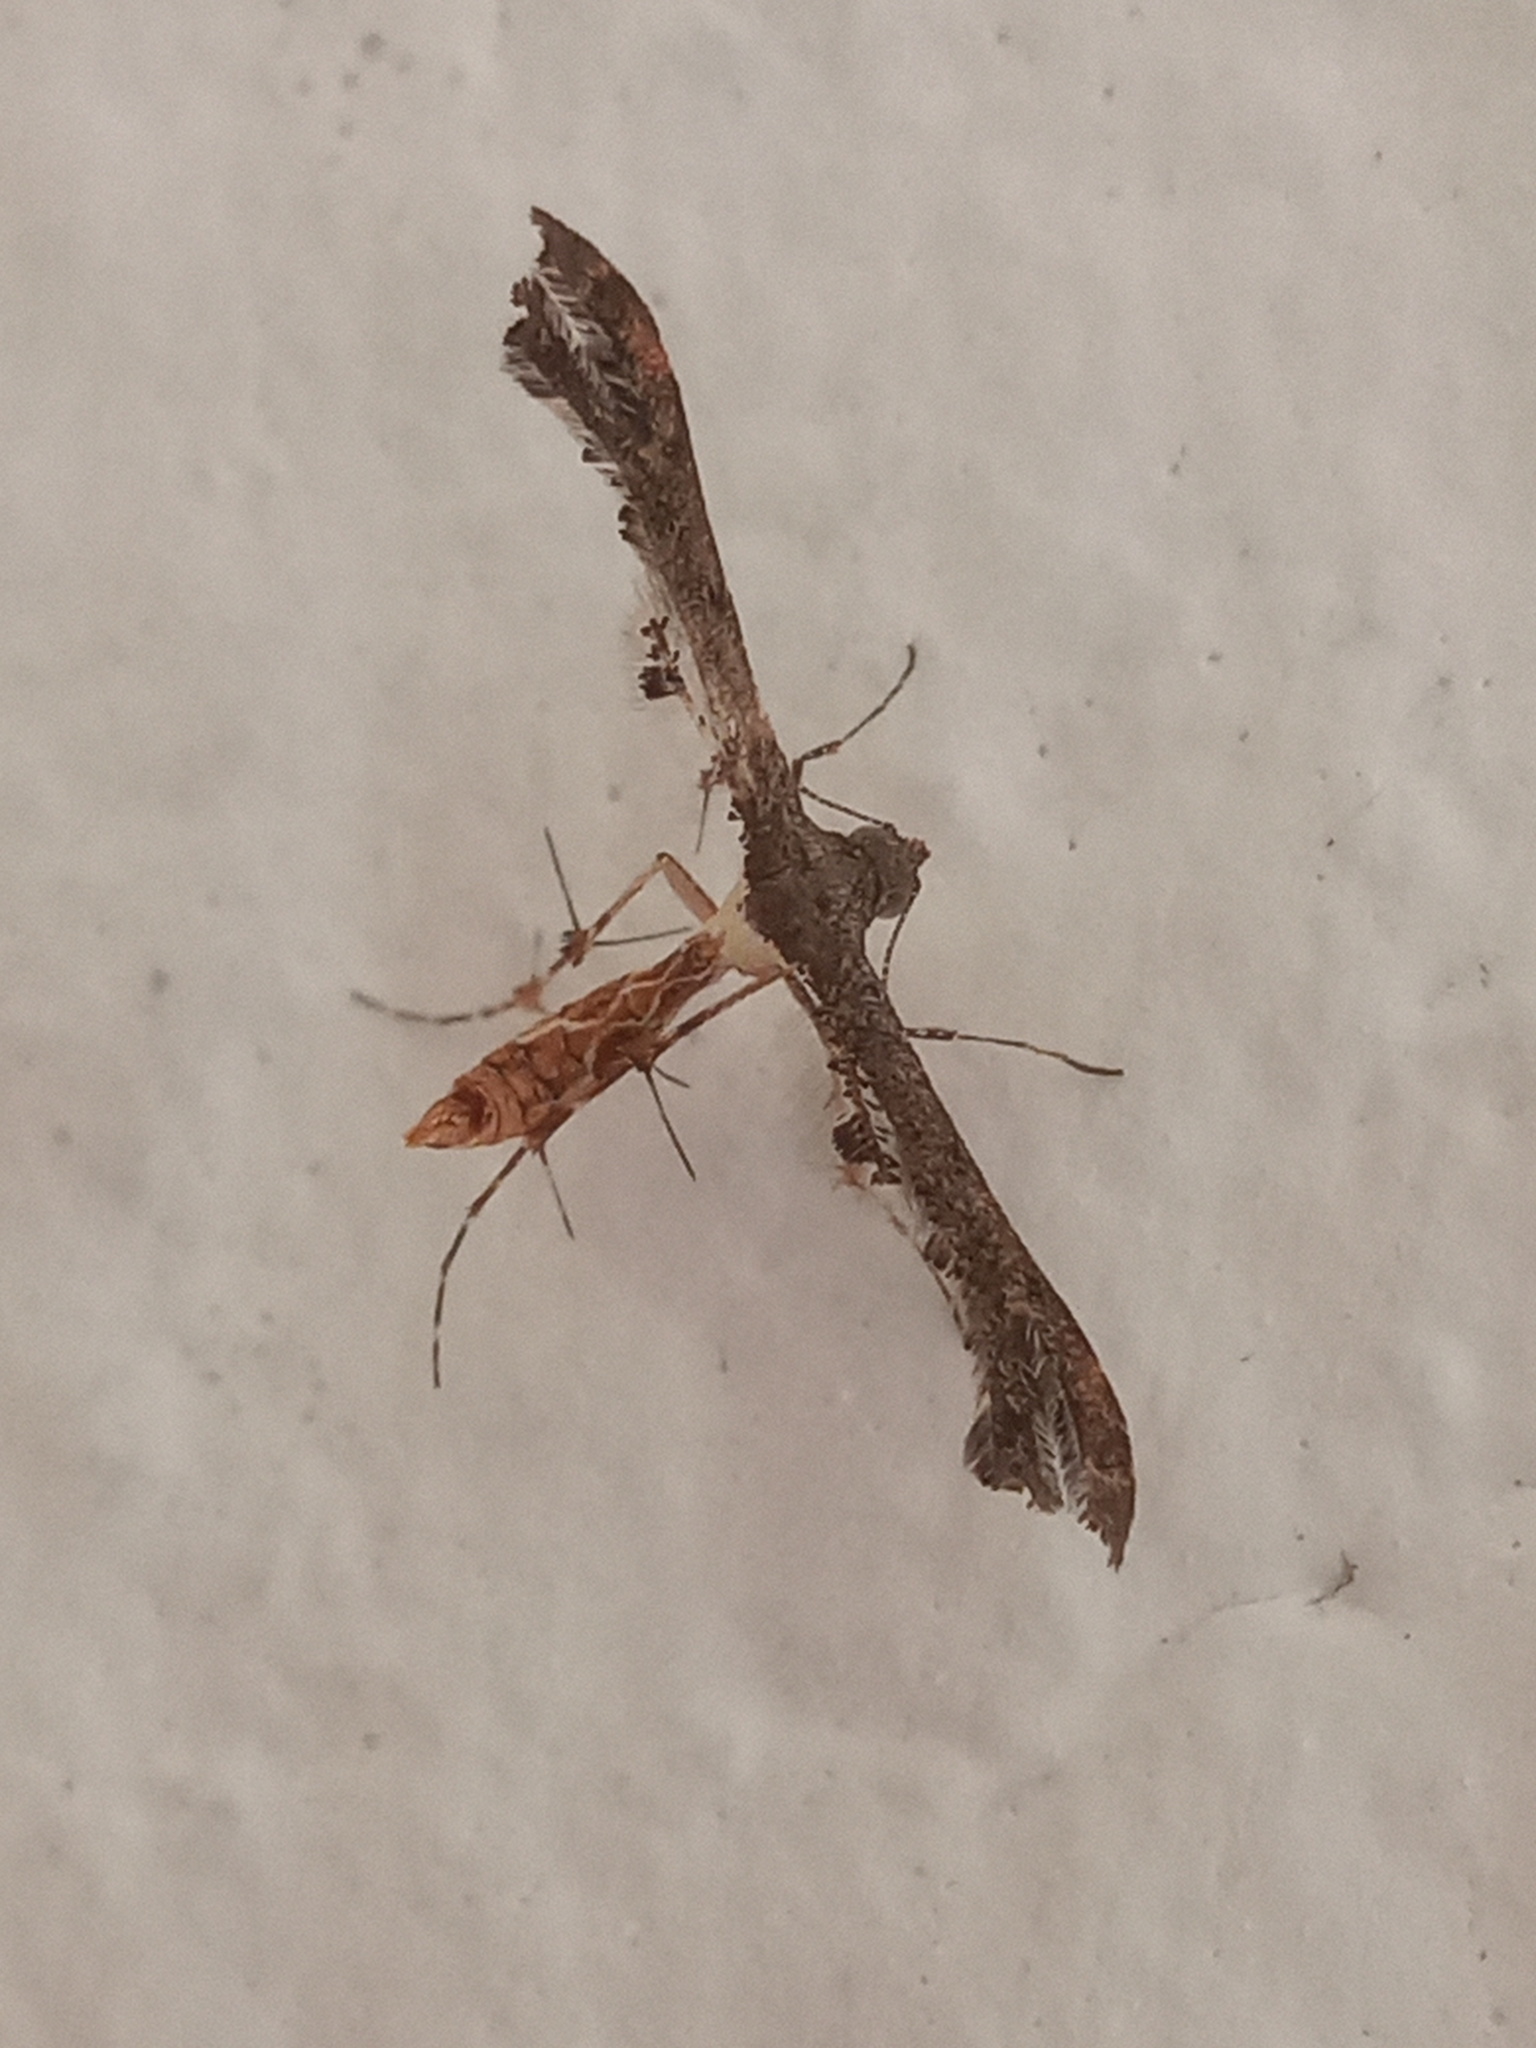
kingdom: Animalia
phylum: Arthropoda
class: Insecta
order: Lepidoptera
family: Pterophoridae
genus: Michaelophorus
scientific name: Michaelophorus indentatus
